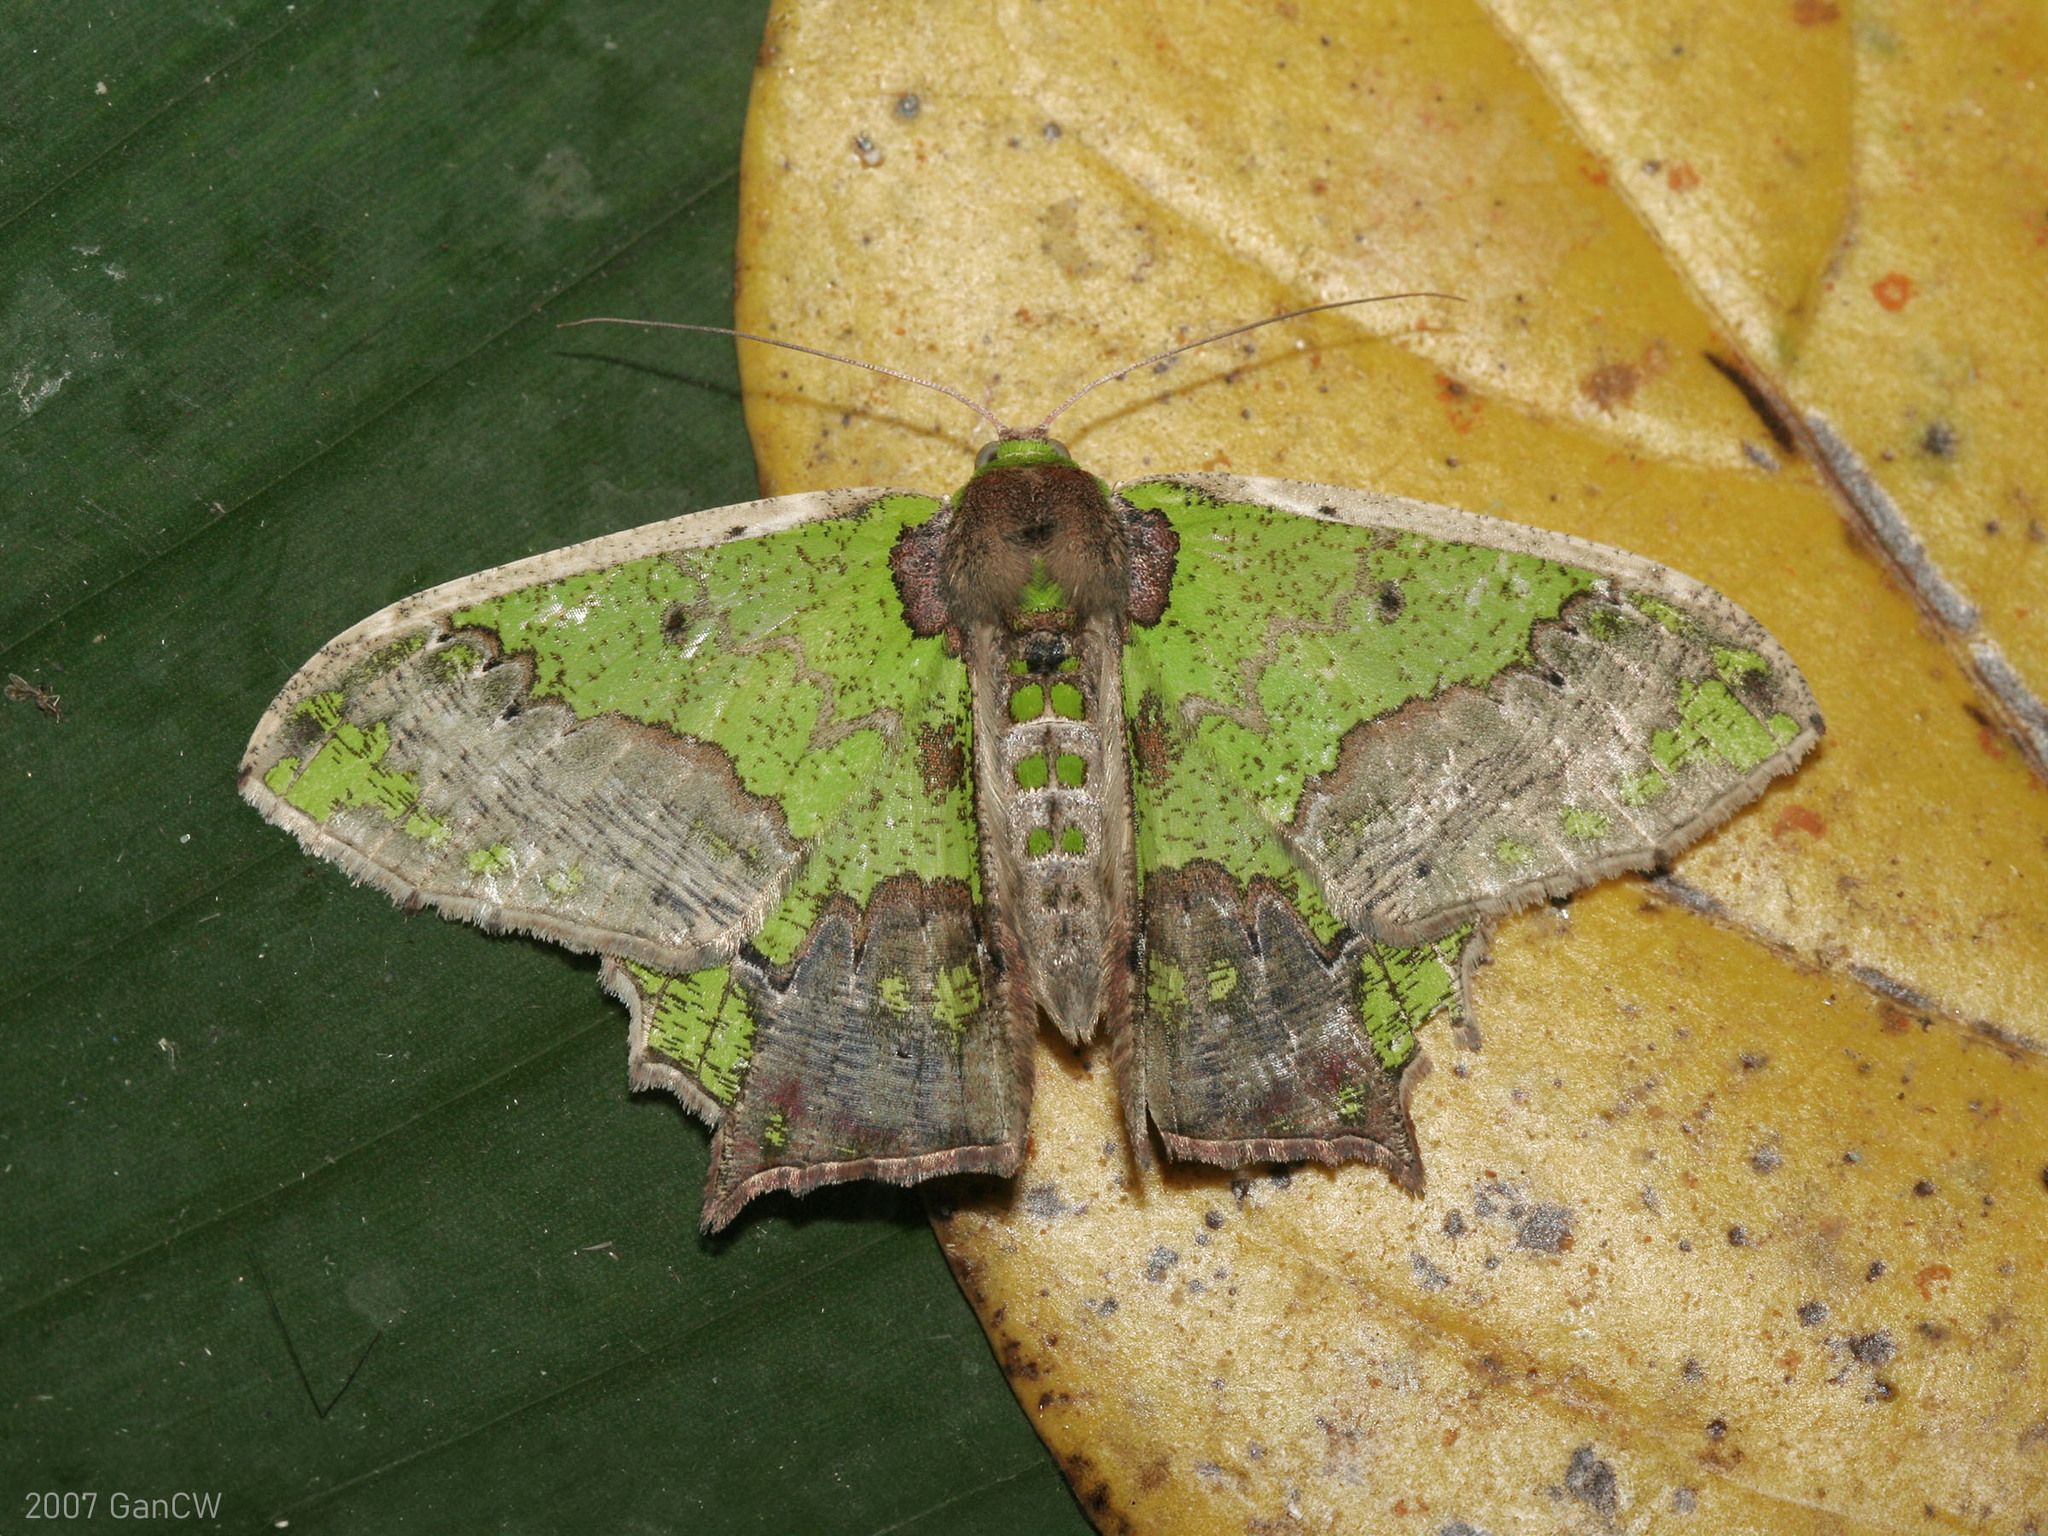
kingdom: Animalia
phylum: Arthropoda
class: Insecta
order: Lepidoptera
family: Geometridae
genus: Agathia
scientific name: Agathia codina
